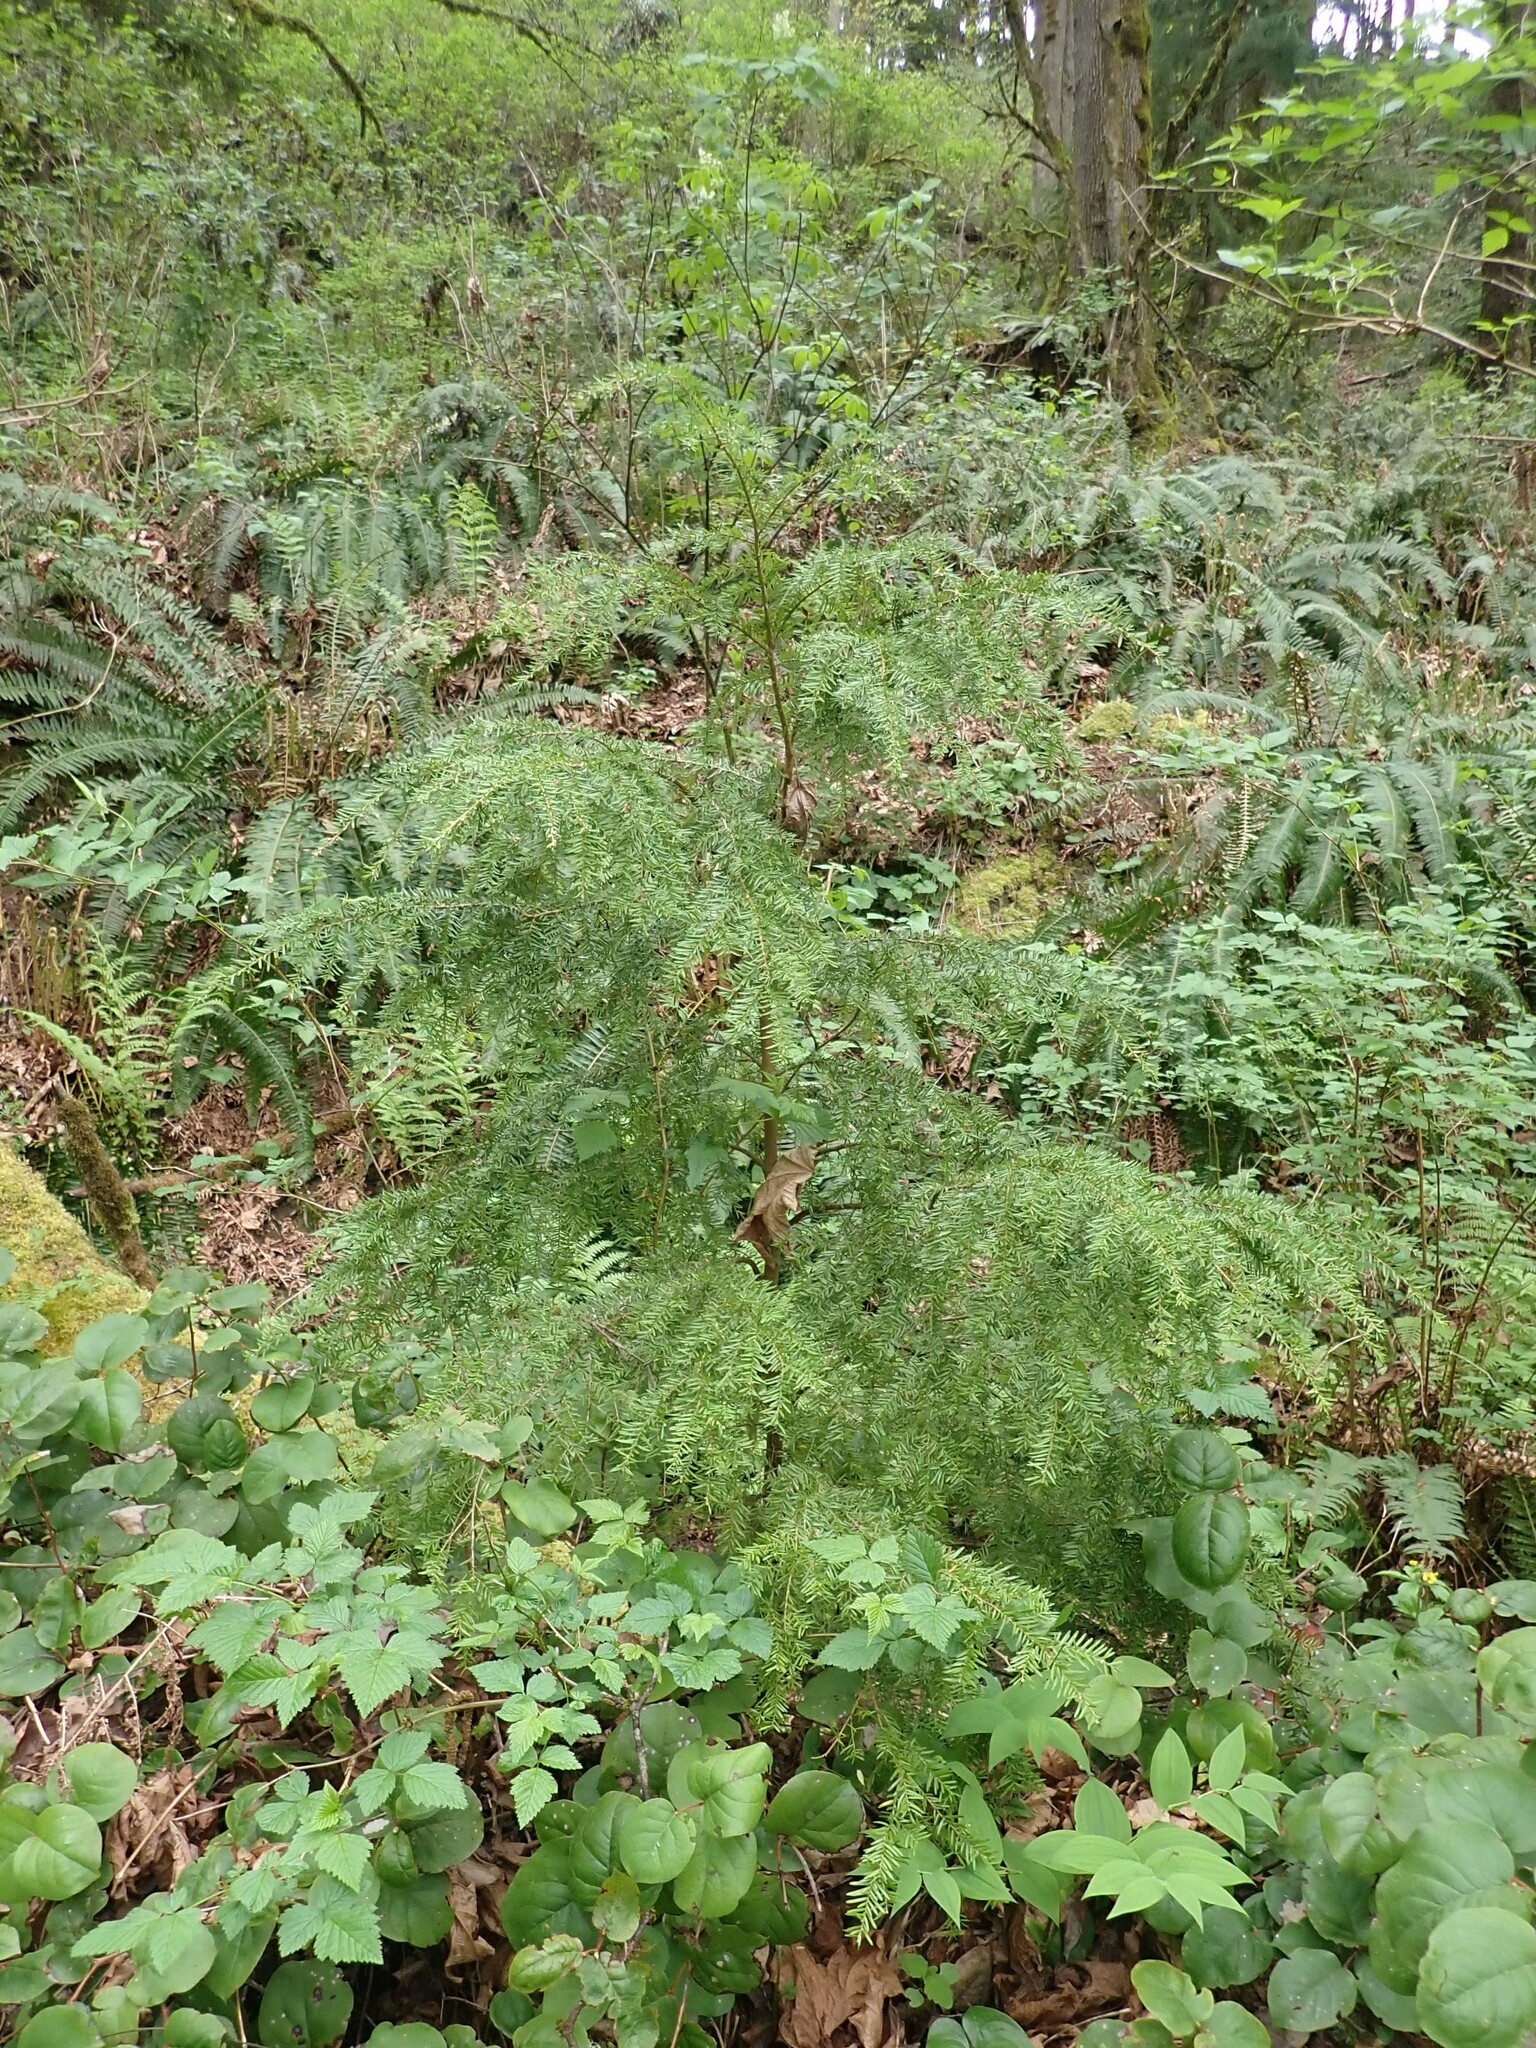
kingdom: Plantae
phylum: Tracheophyta
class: Pinopsida
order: Pinales
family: Pinaceae
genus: Tsuga
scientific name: Tsuga heterophylla
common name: Western hemlock
